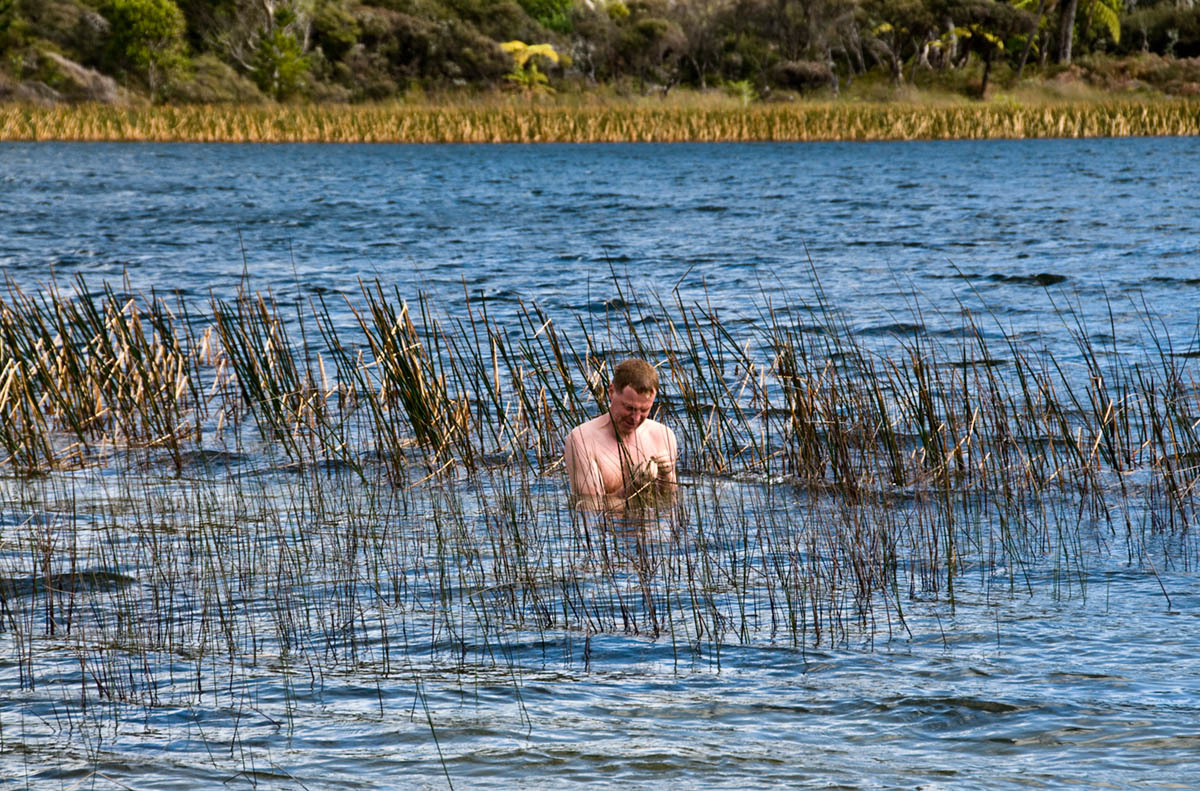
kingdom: Plantae
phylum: Tracheophyta
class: Magnoliopsida
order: Nymphaeales
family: Hydatellaceae
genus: Trithuria
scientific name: Trithuria inconspicua
